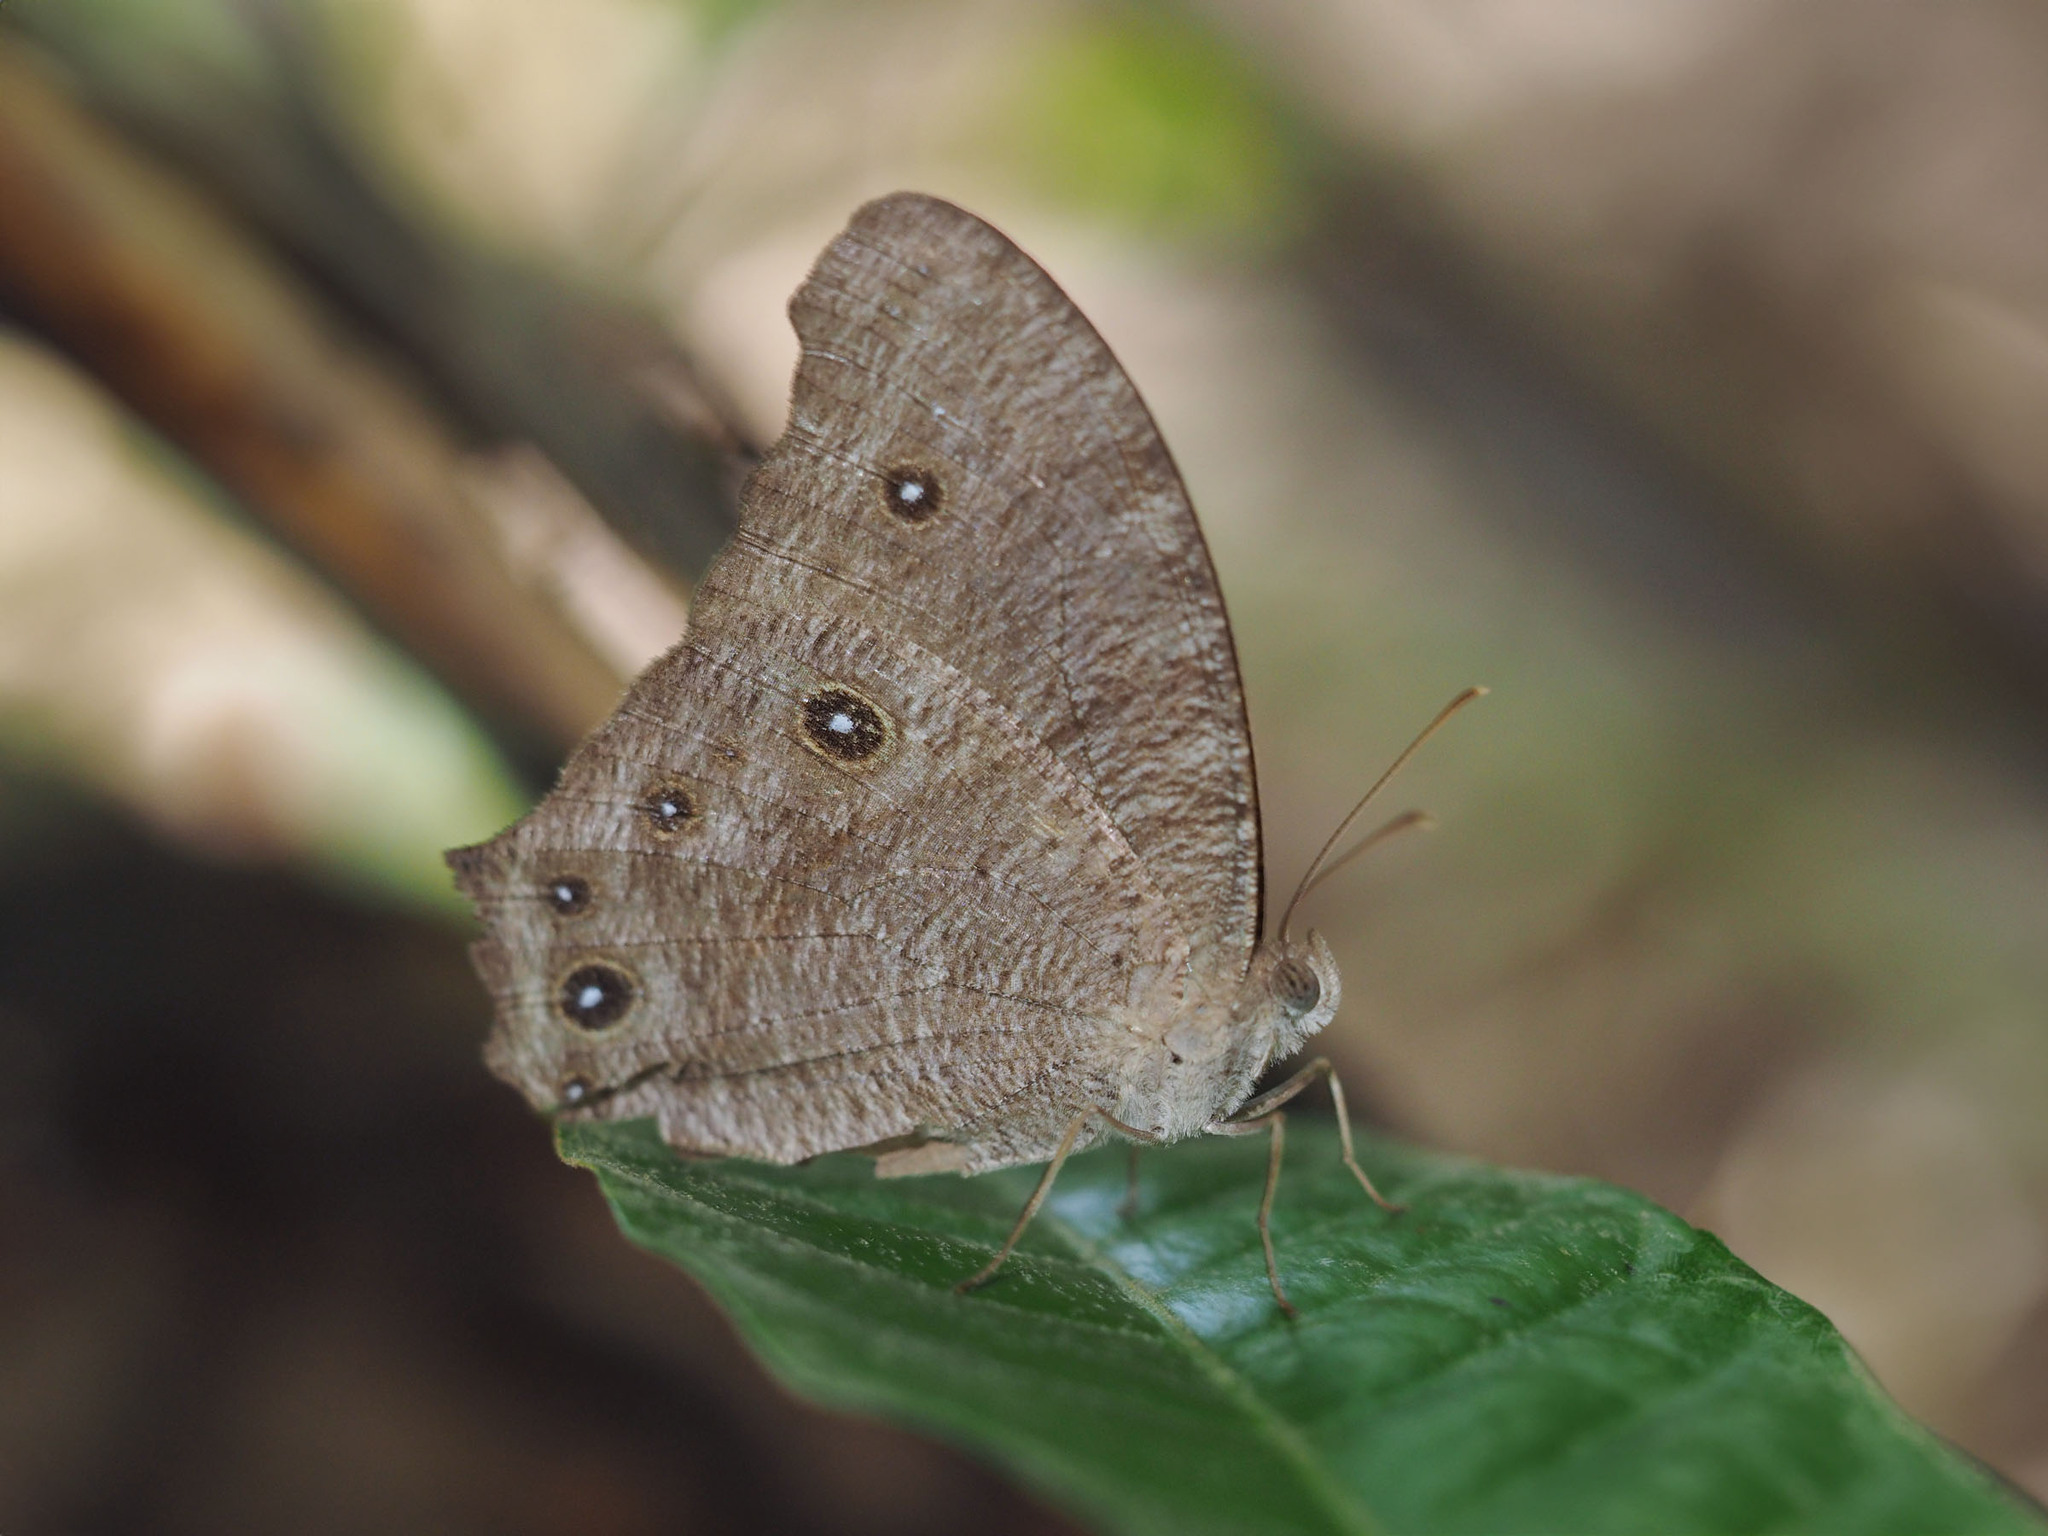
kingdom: Animalia
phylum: Arthropoda
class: Insecta
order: Lepidoptera
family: Nymphalidae
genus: Melanitis
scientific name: Melanitis leda
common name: Twilight brown
